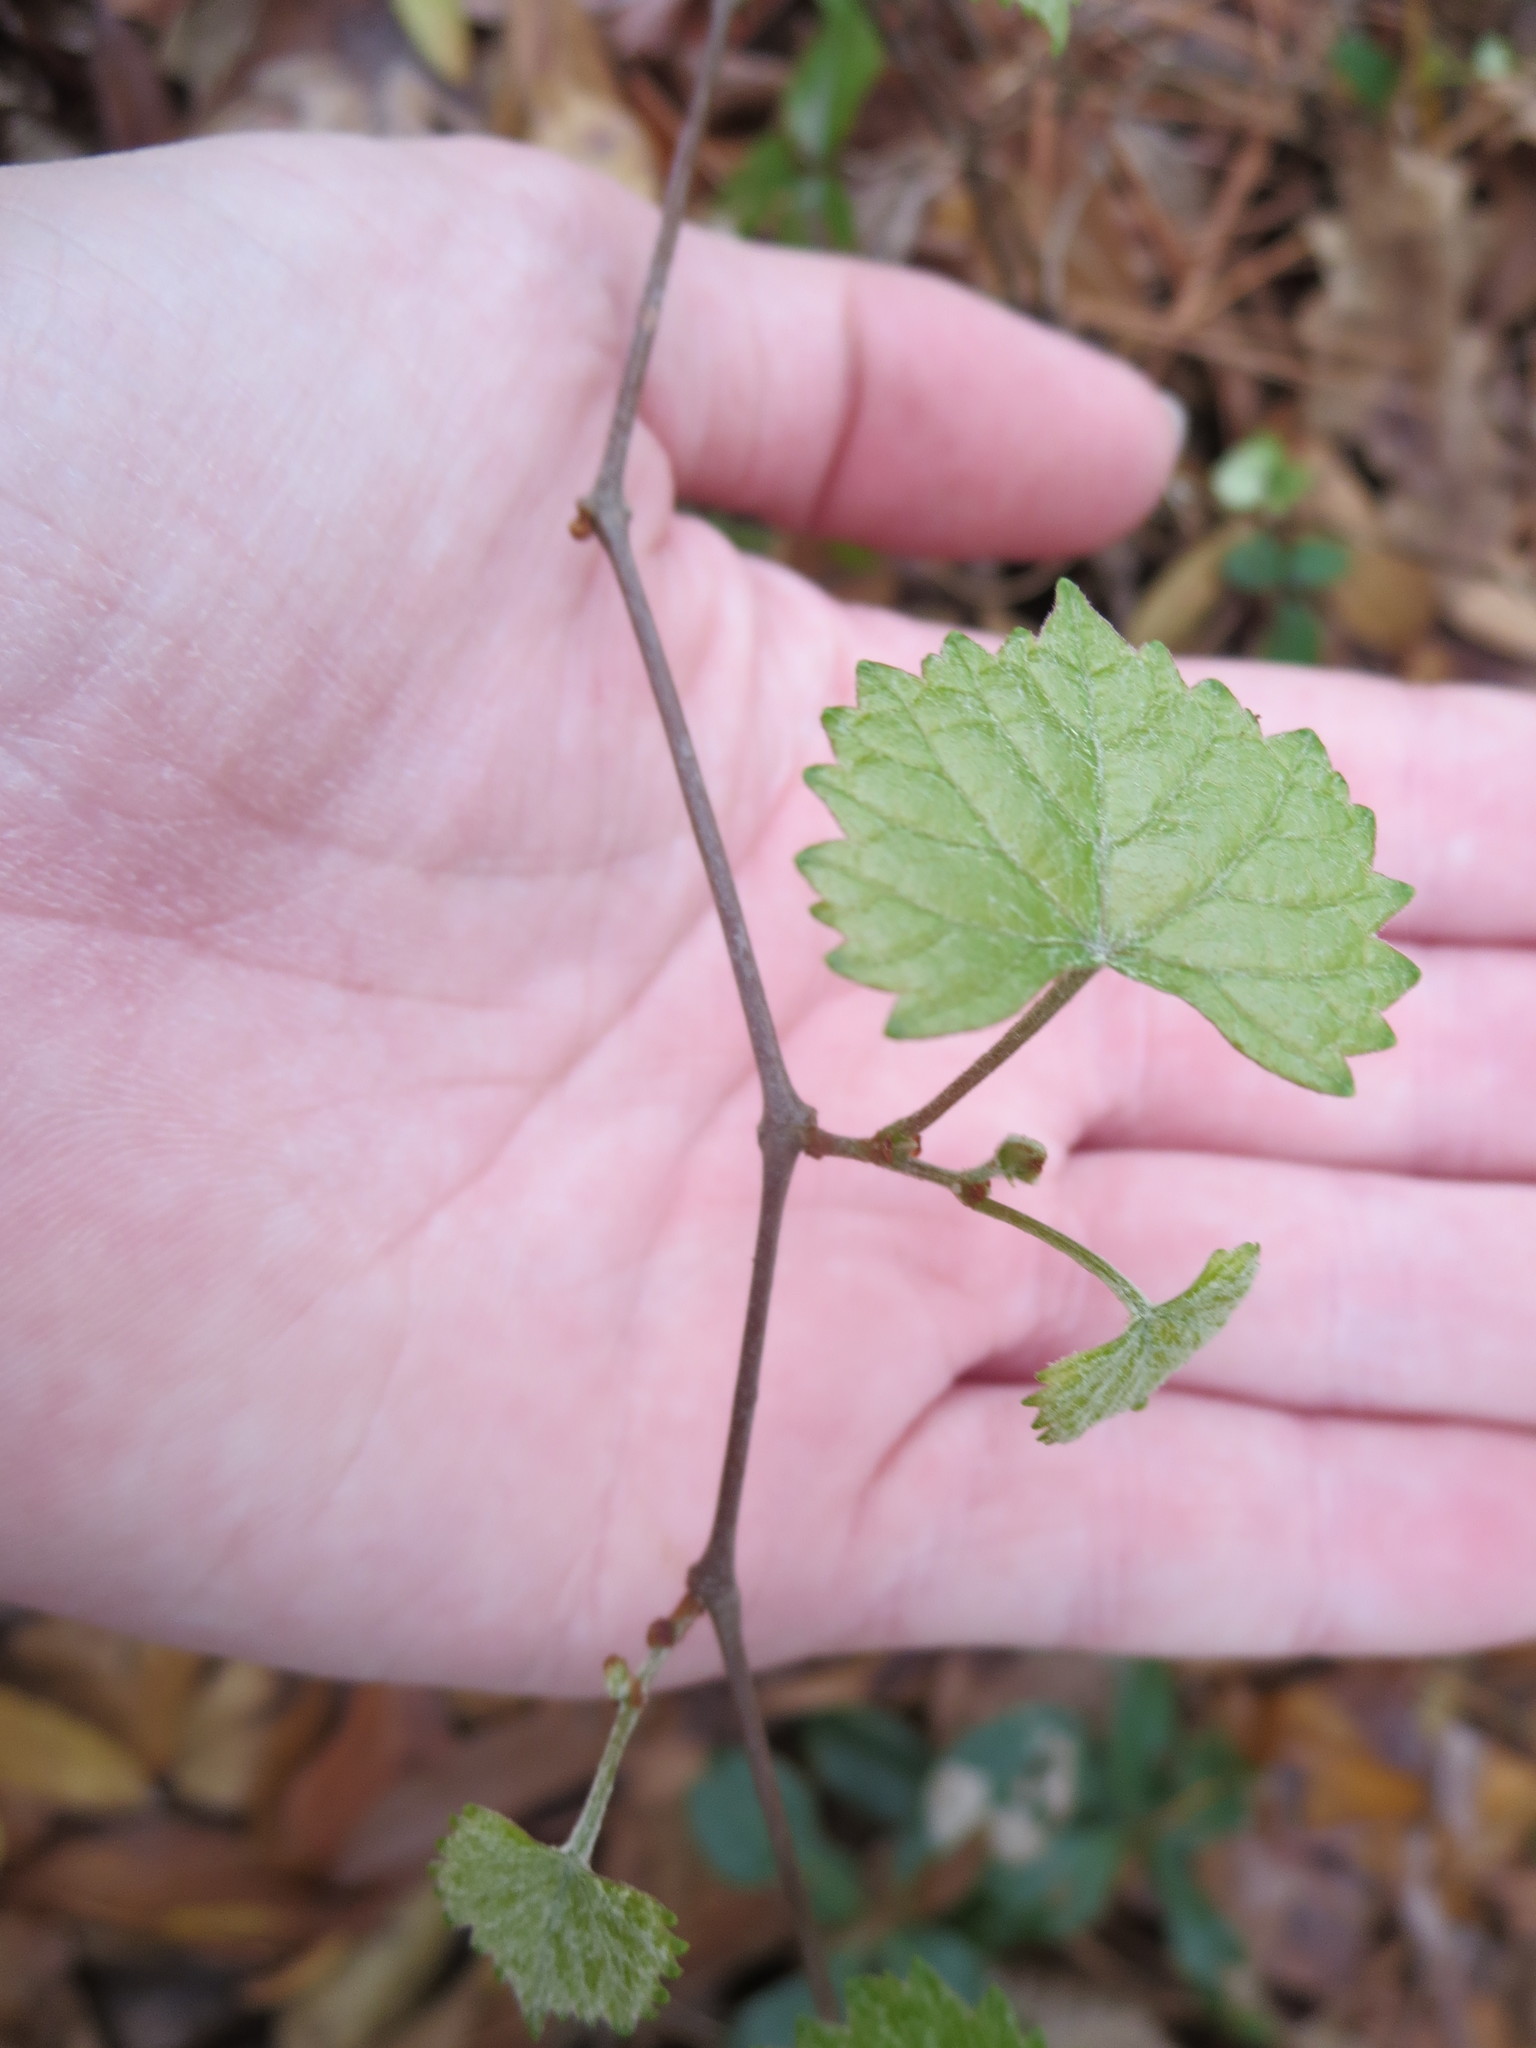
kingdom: Plantae
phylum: Tracheophyta
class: Magnoliopsida
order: Vitales
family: Vitaceae
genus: Vitis
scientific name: Vitis rotundifolia
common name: Muscadine grape
